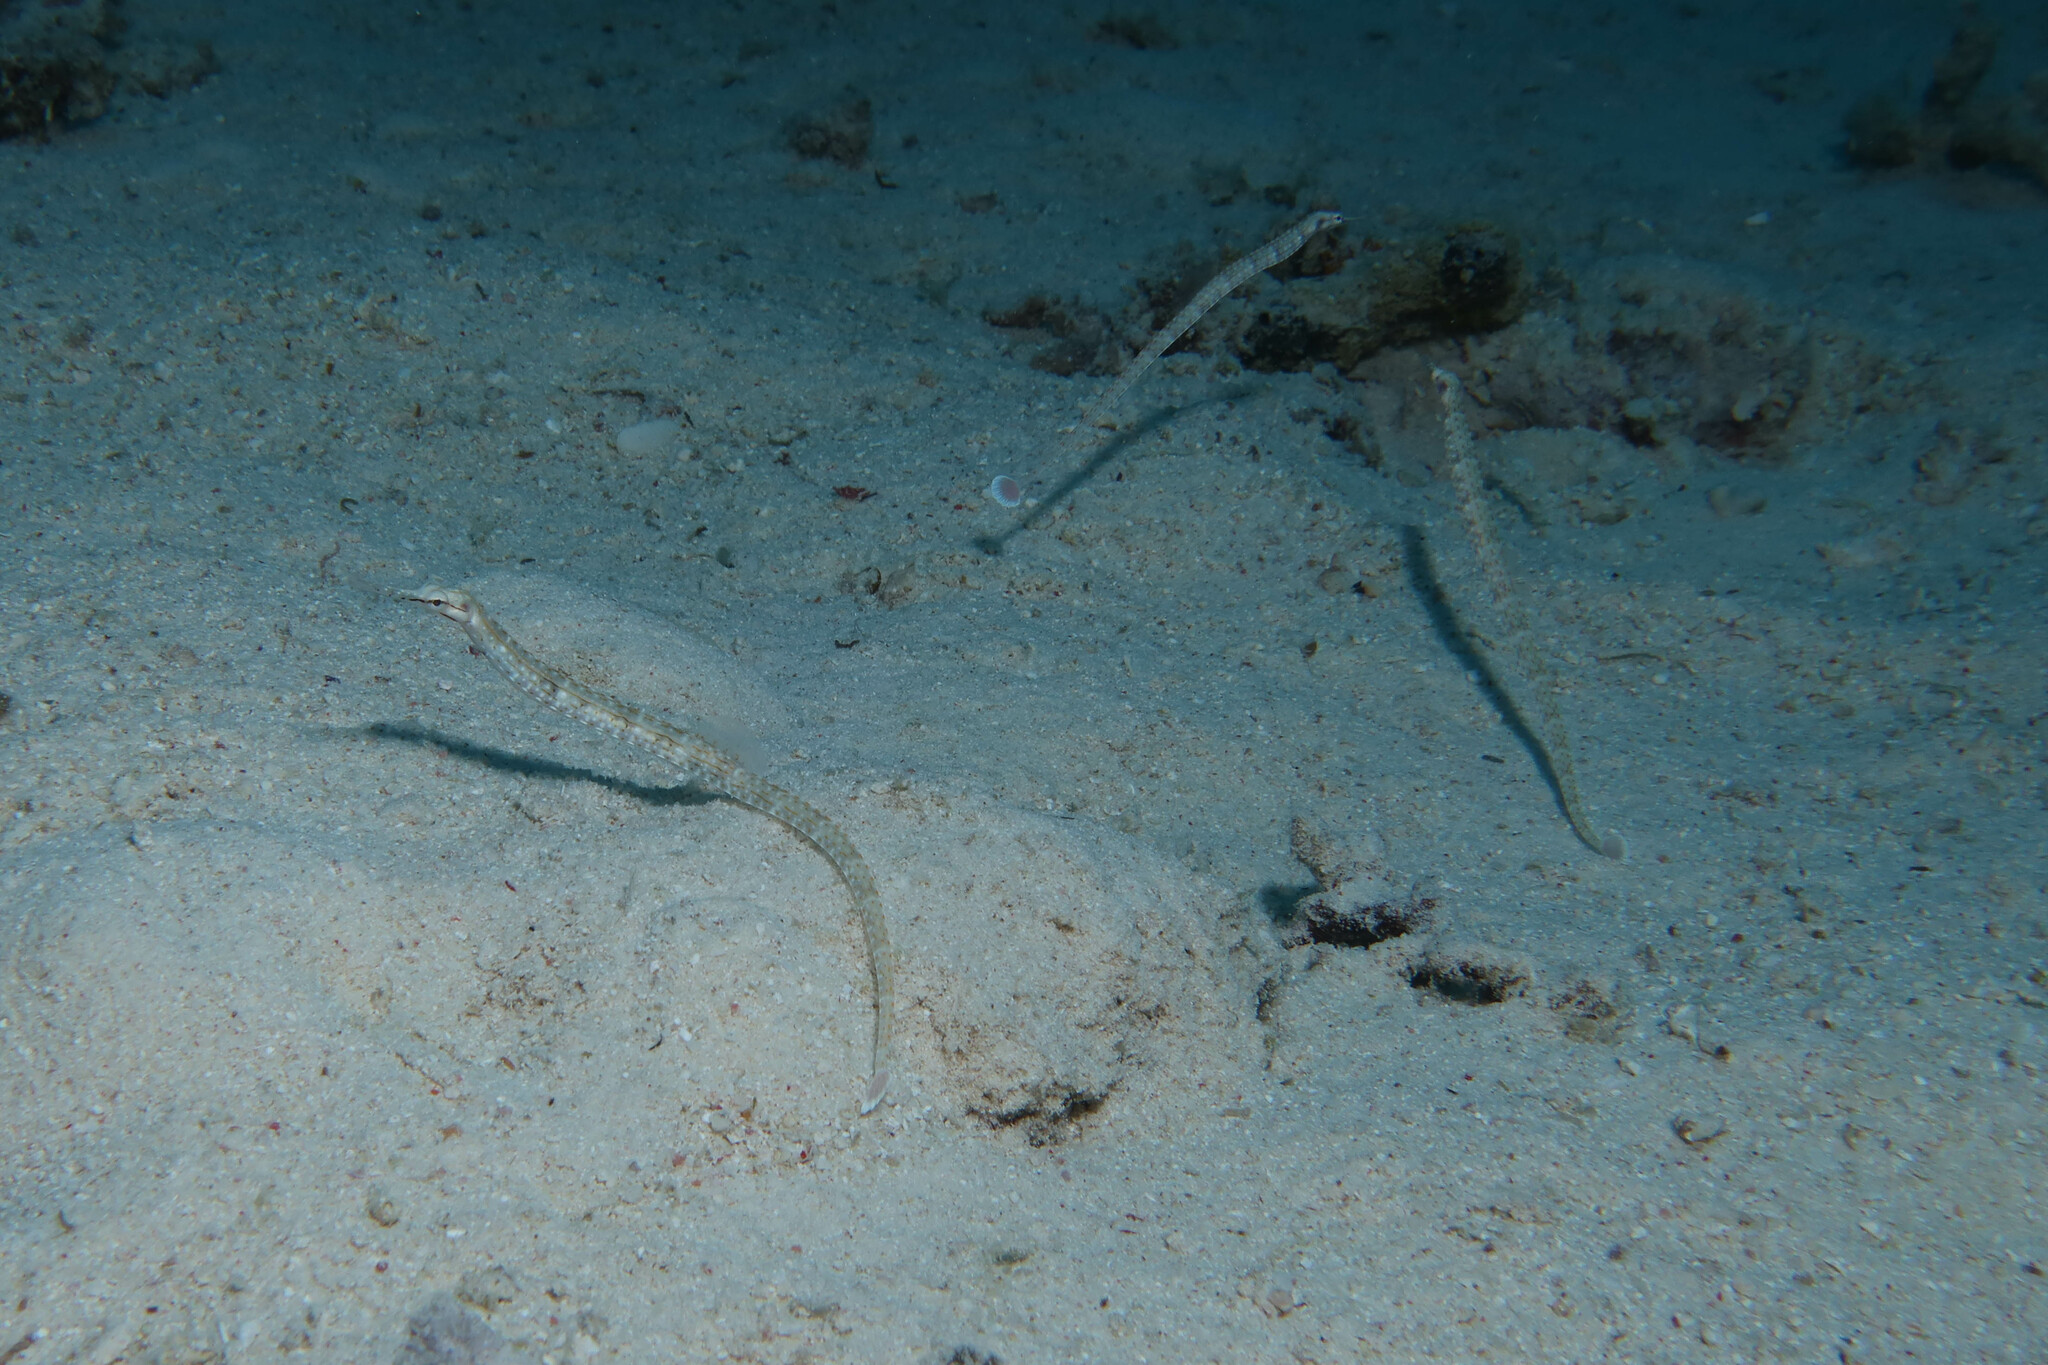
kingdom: Animalia
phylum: Chordata
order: Syngnathiformes
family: Syngnathidae
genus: Corythoichthys
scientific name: Corythoichthys schultzi
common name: Guilded pipefish
